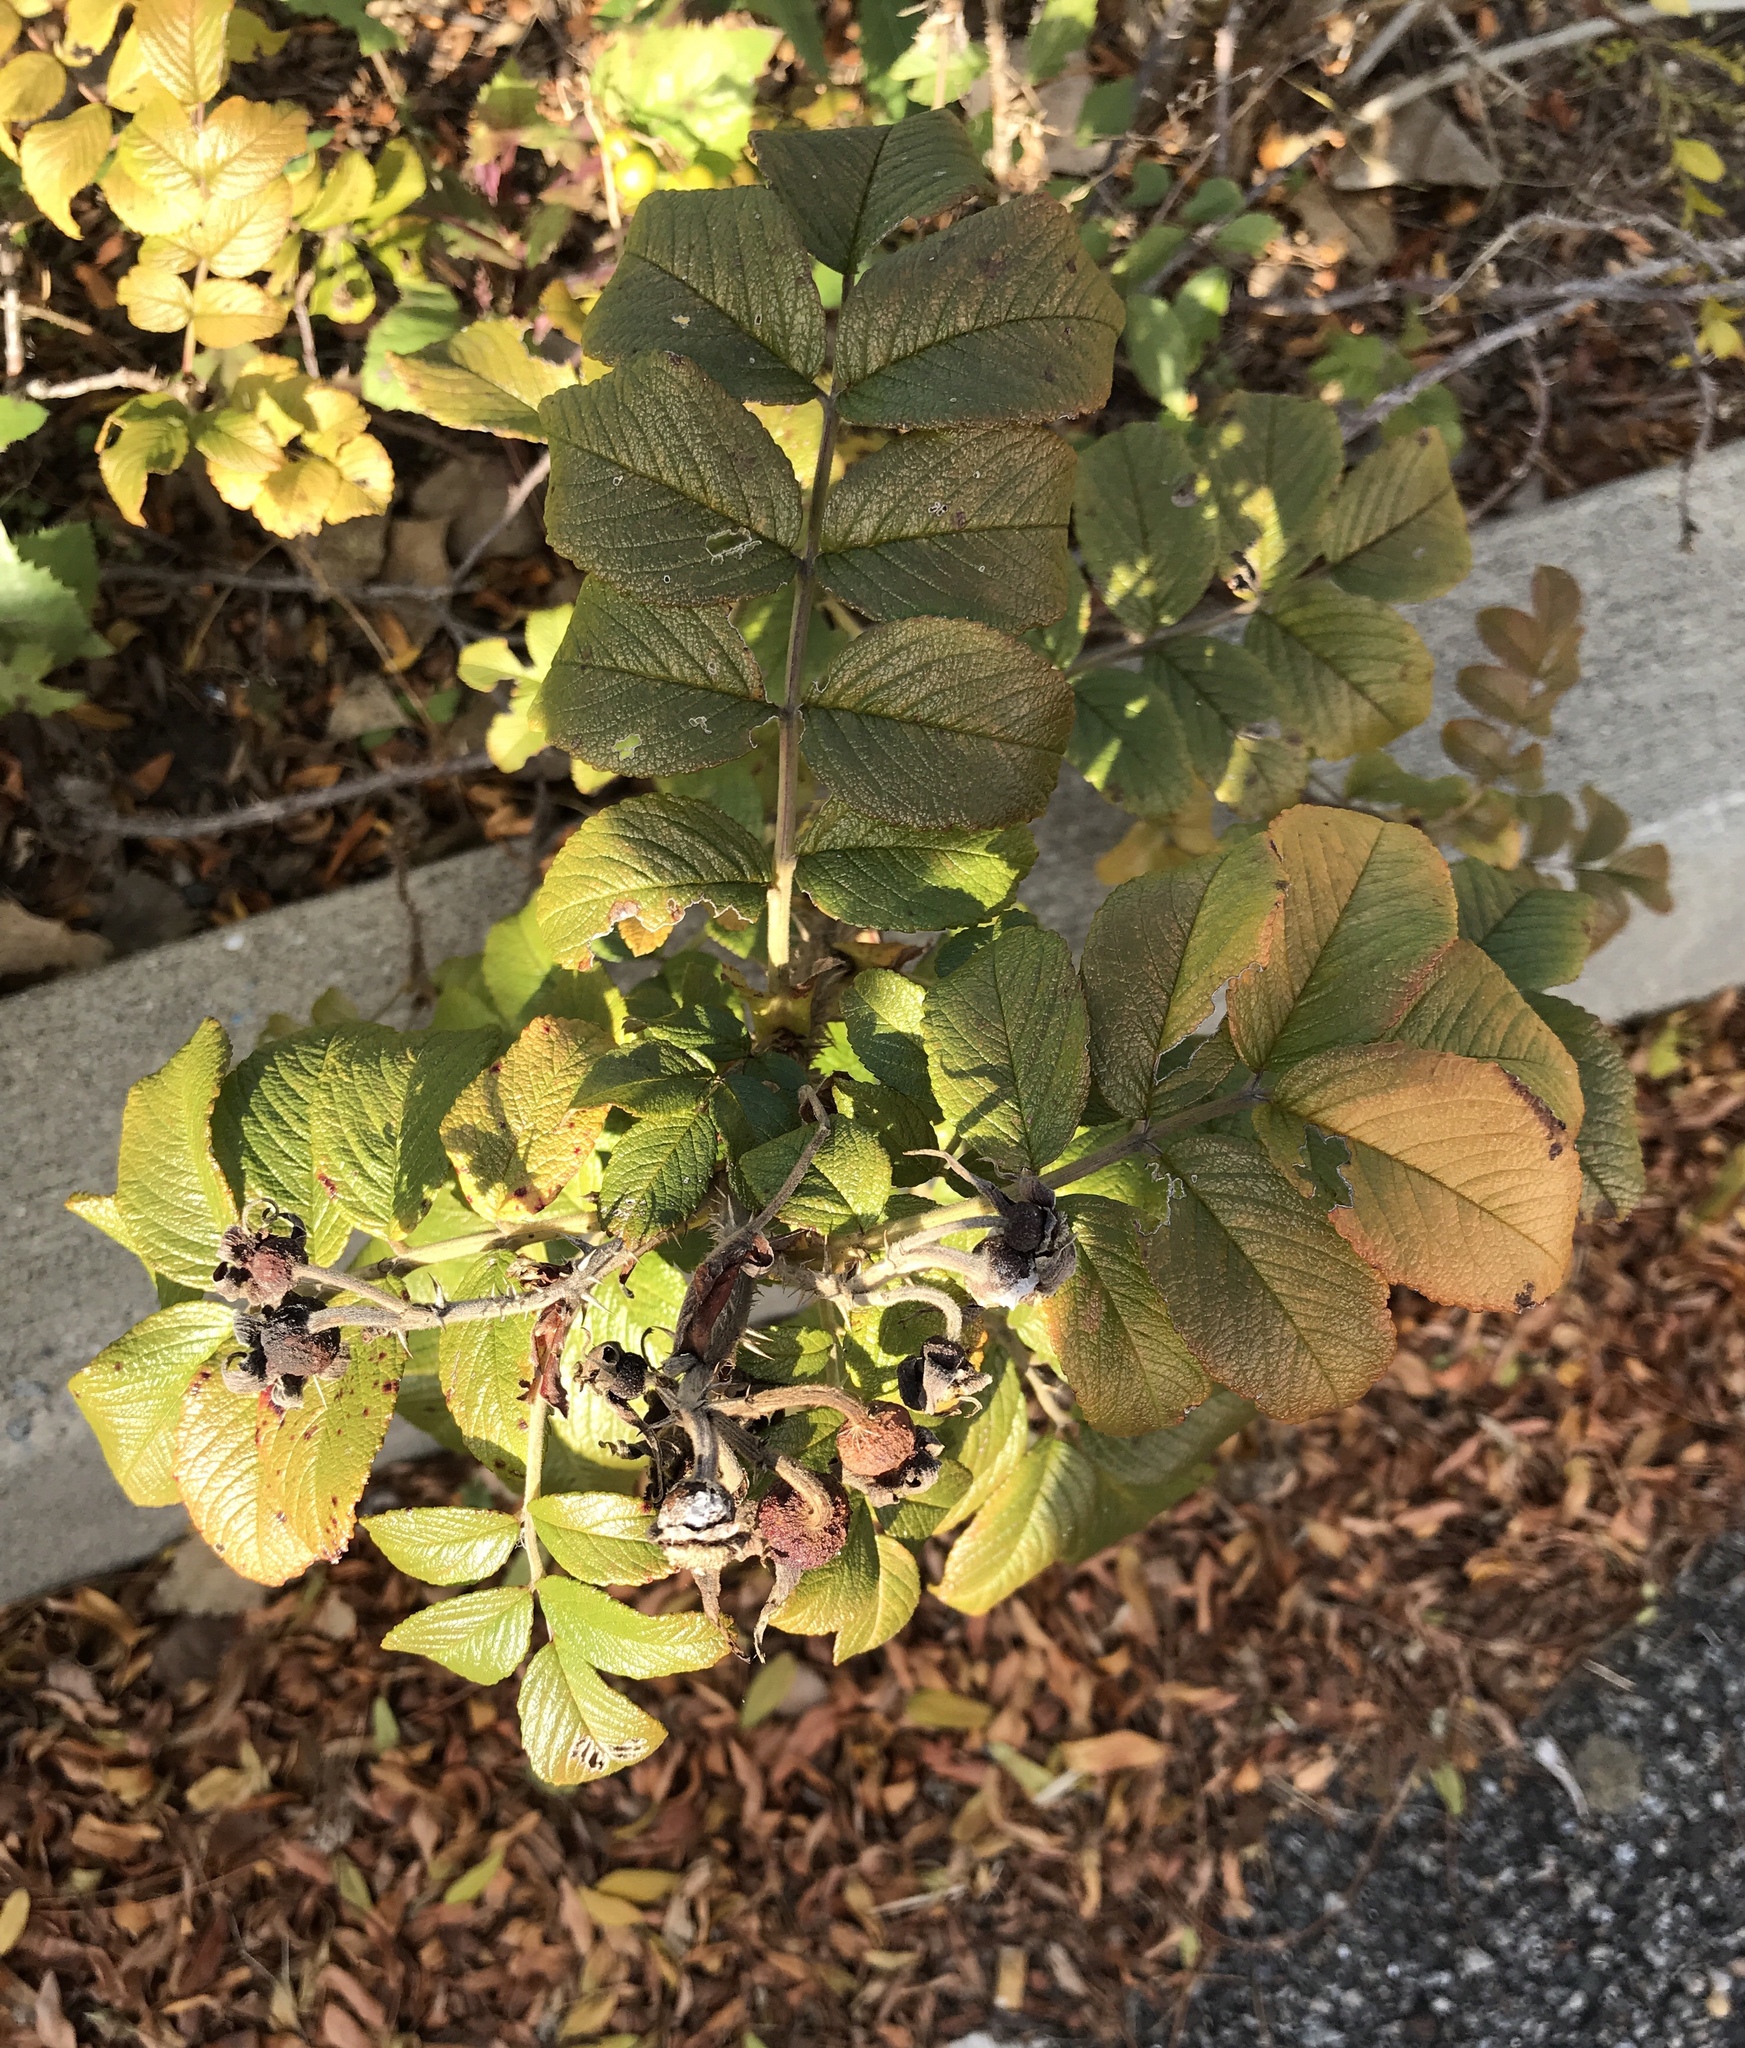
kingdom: Plantae
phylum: Tracheophyta
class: Magnoliopsida
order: Rosales
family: Rosaceae
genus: Rosa
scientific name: Rosa rugosa
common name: Japanese rose
